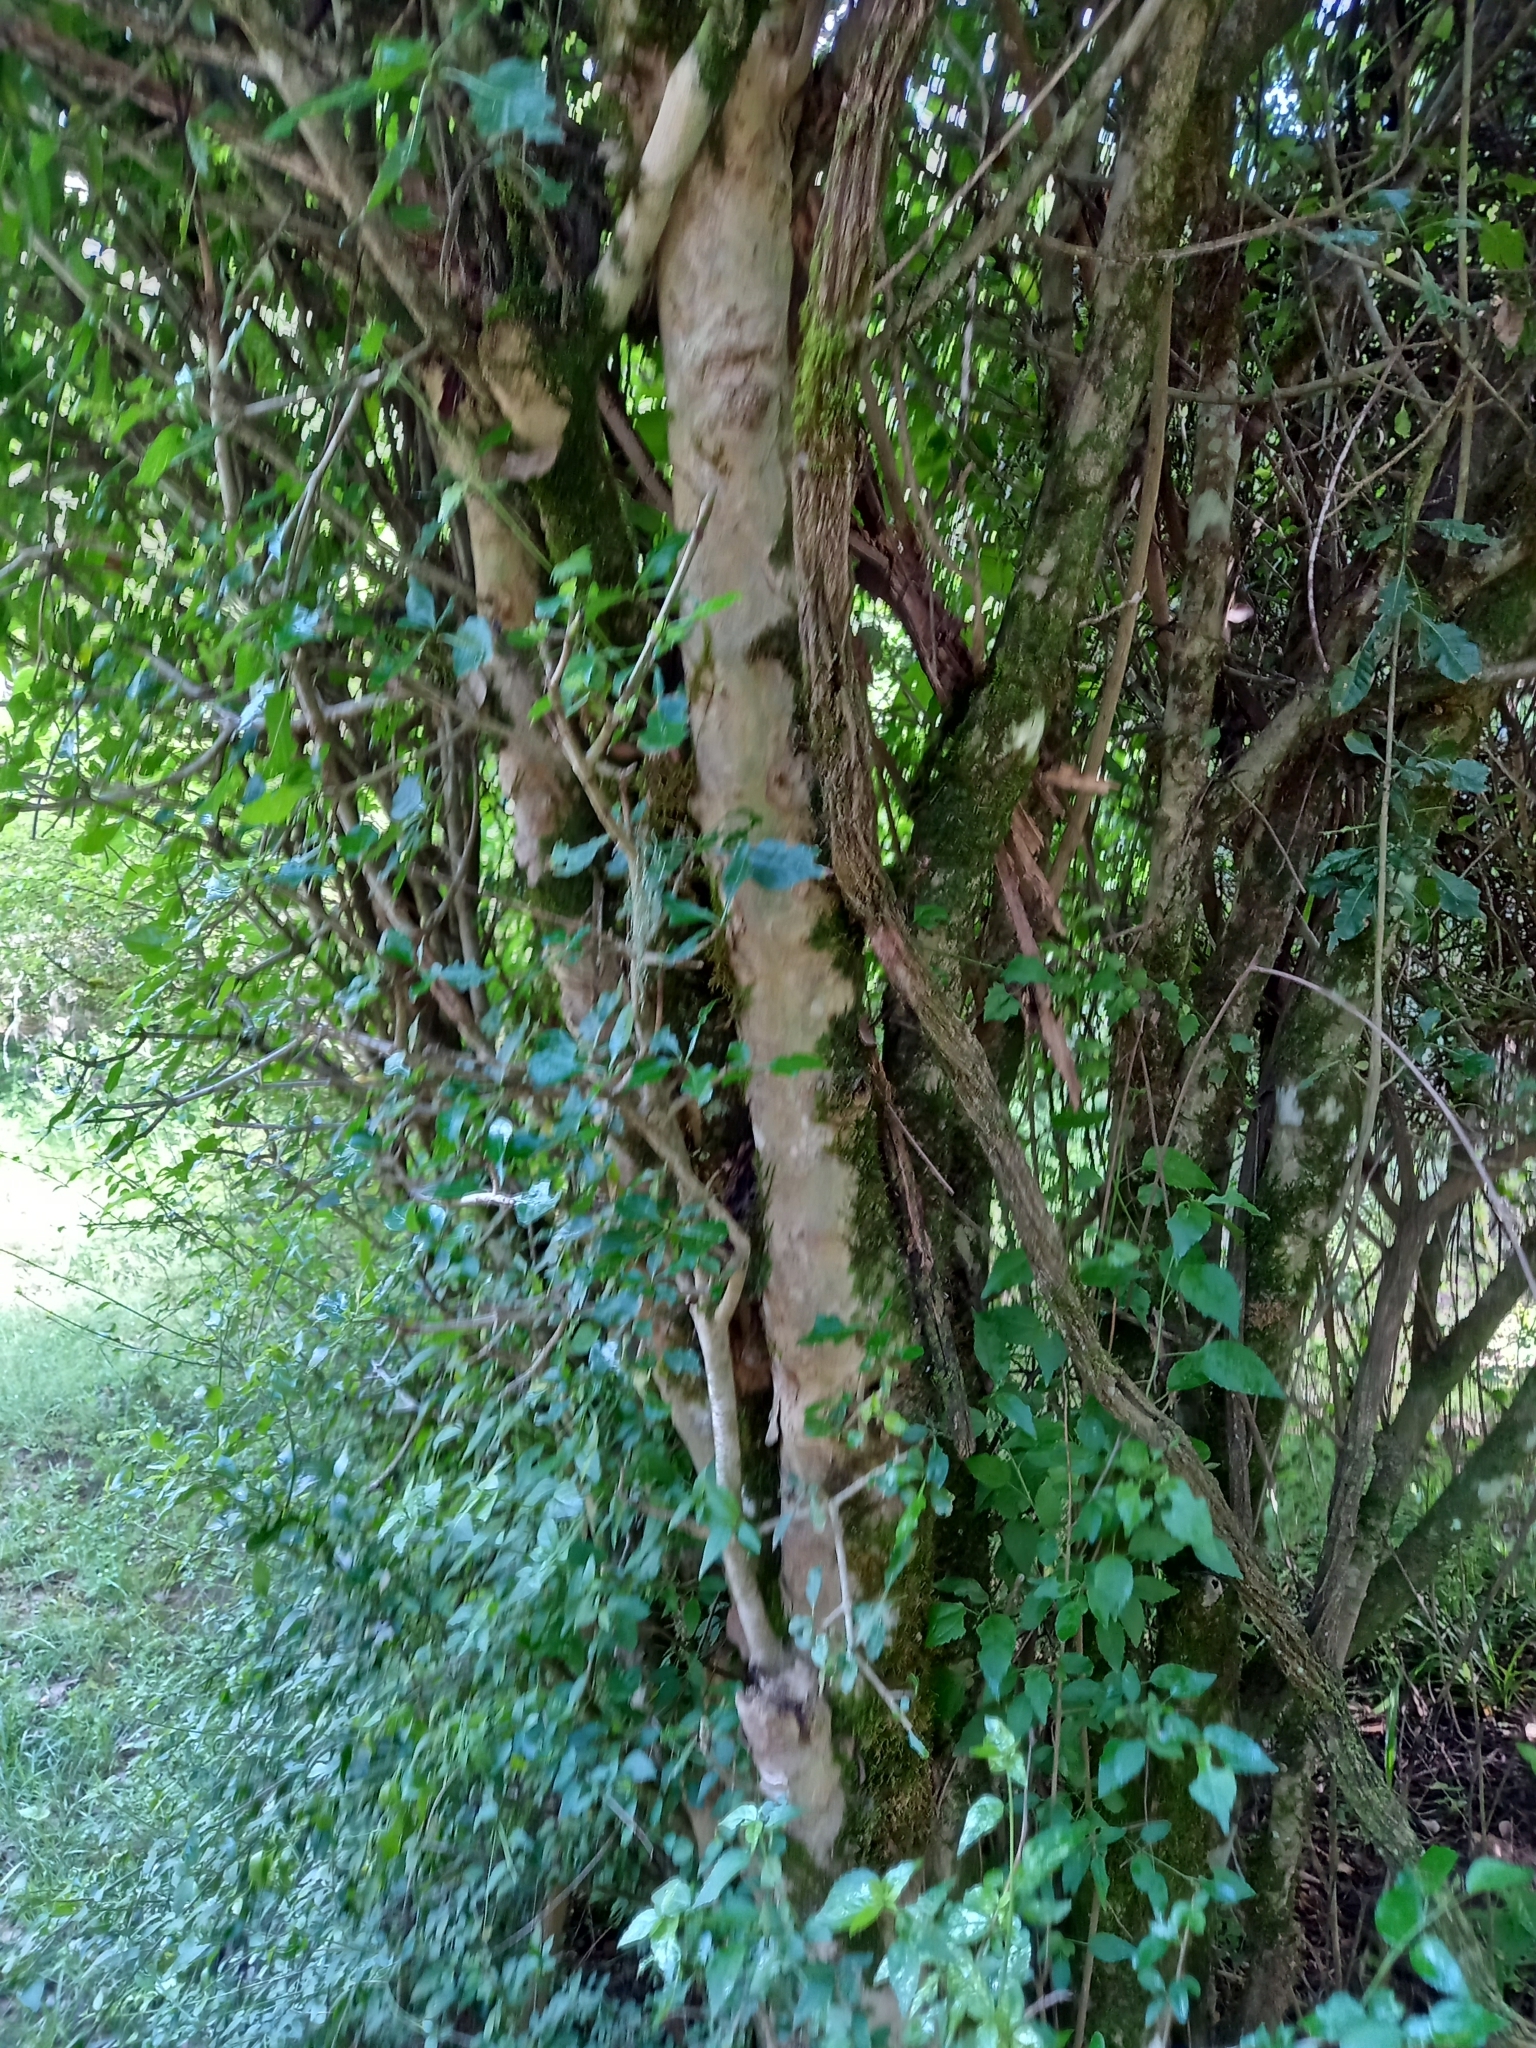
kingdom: Plantae
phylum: Tracheophyta
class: Magnoliopsida
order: Gentianales
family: Rubiaceae
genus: Gardenia
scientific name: Gardenia thunbergia
